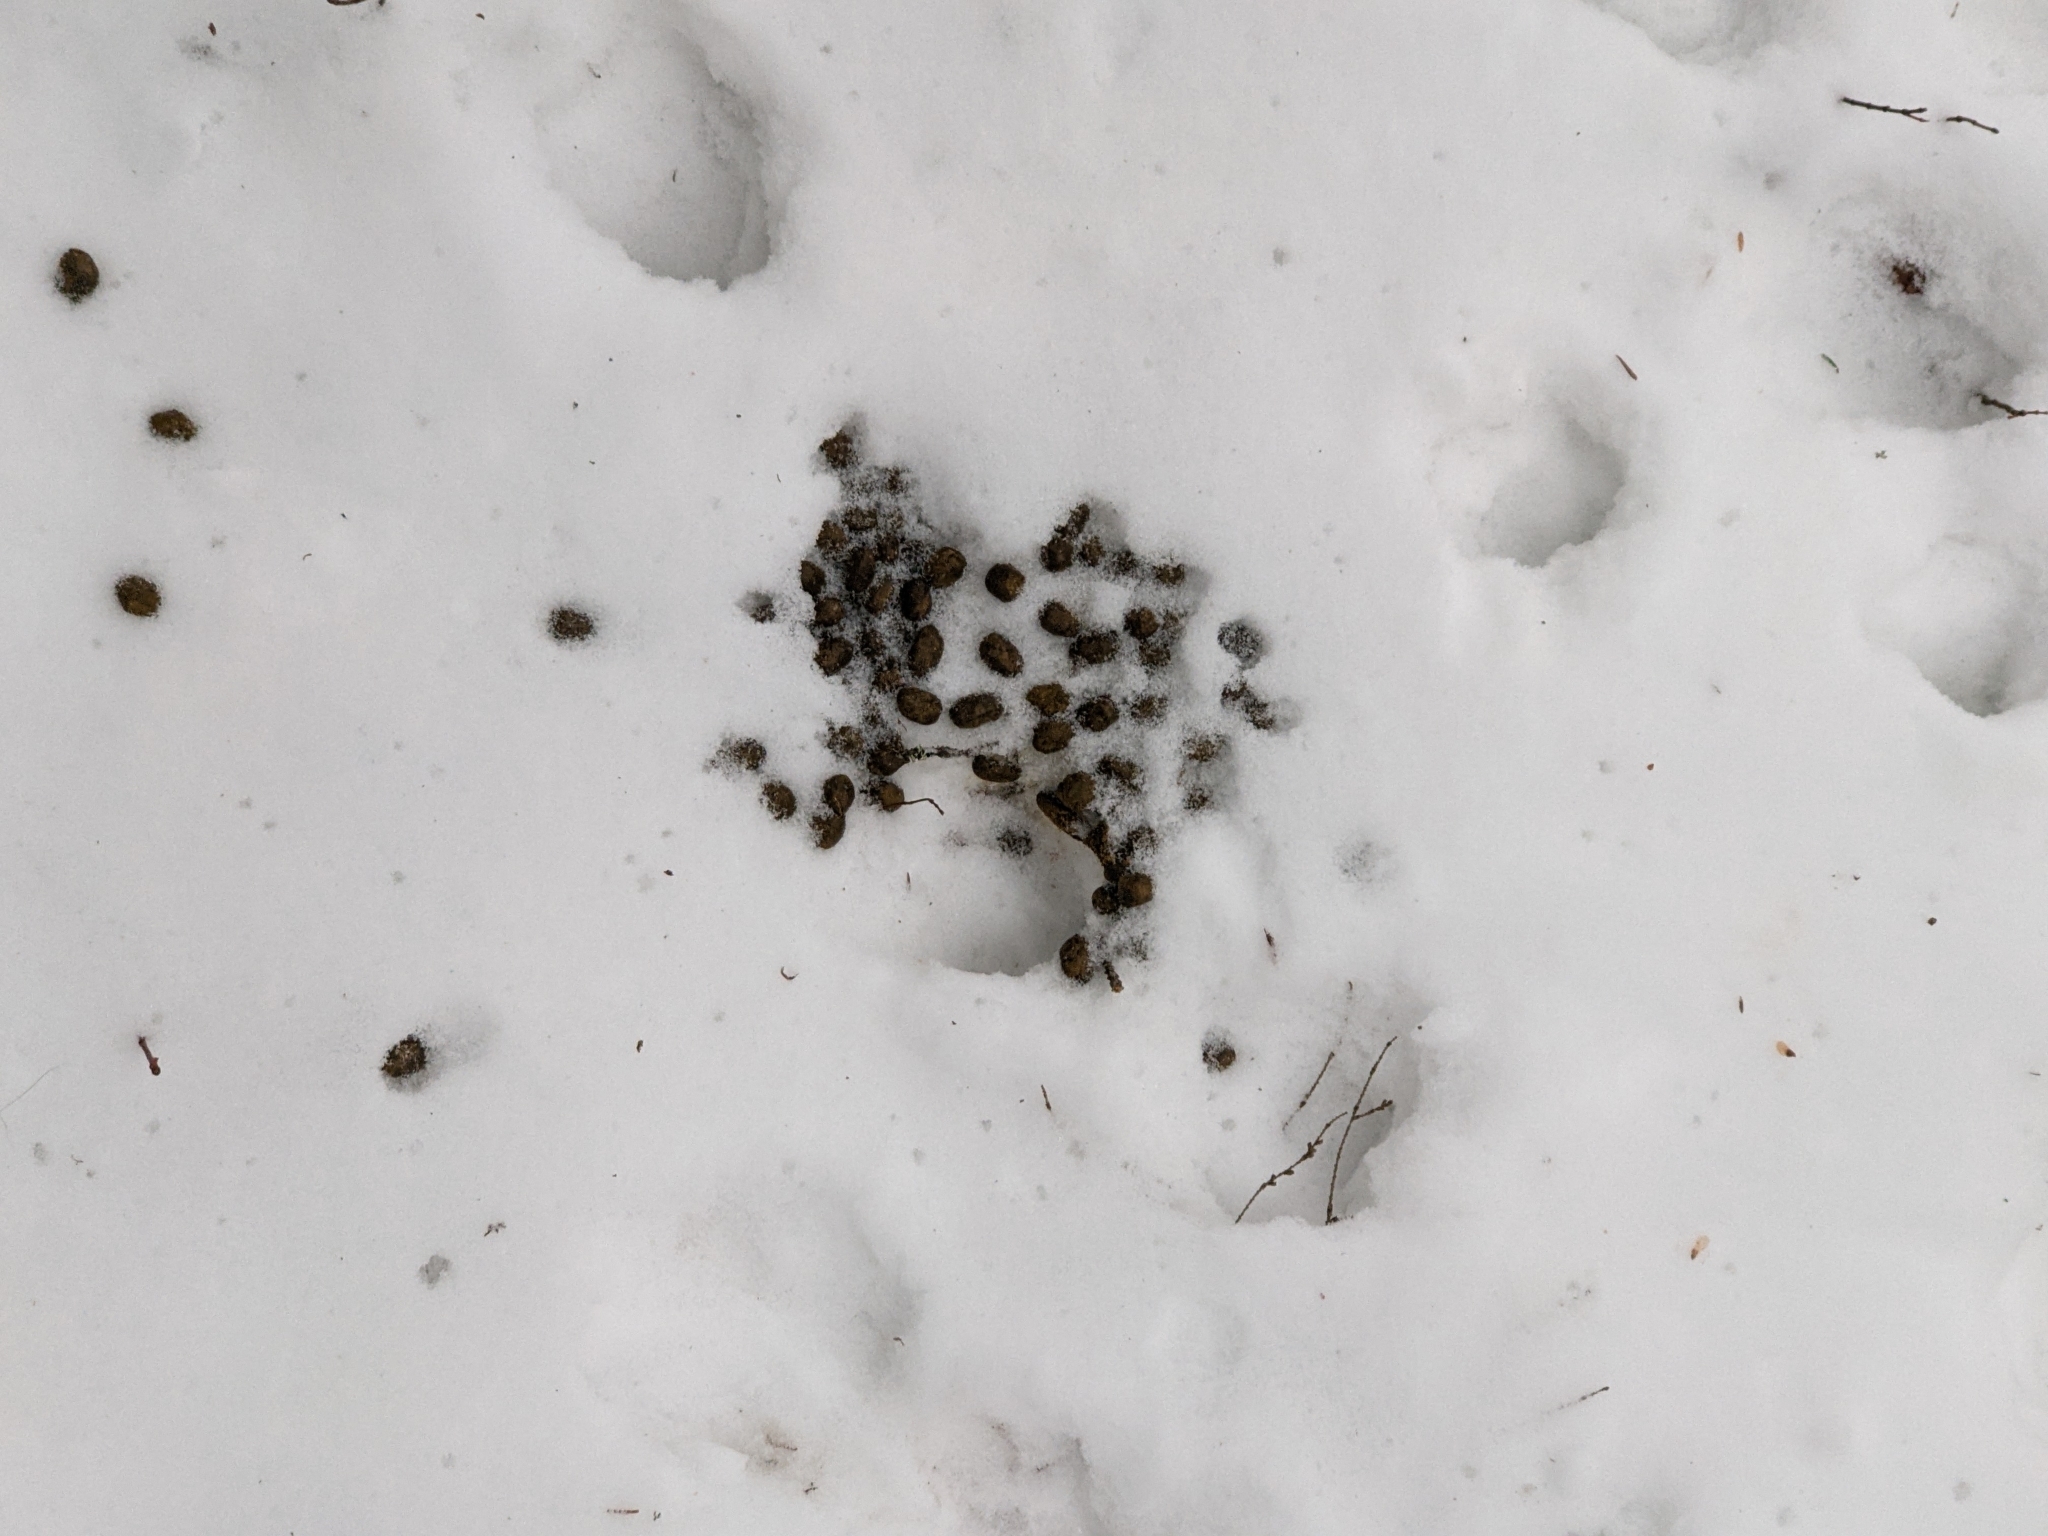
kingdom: Animalia
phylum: Chordata
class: Mammalia
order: Artiodactyla
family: Cervidae
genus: Odocoileus
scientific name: Odocoileus virginianus
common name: White-tailed deer
